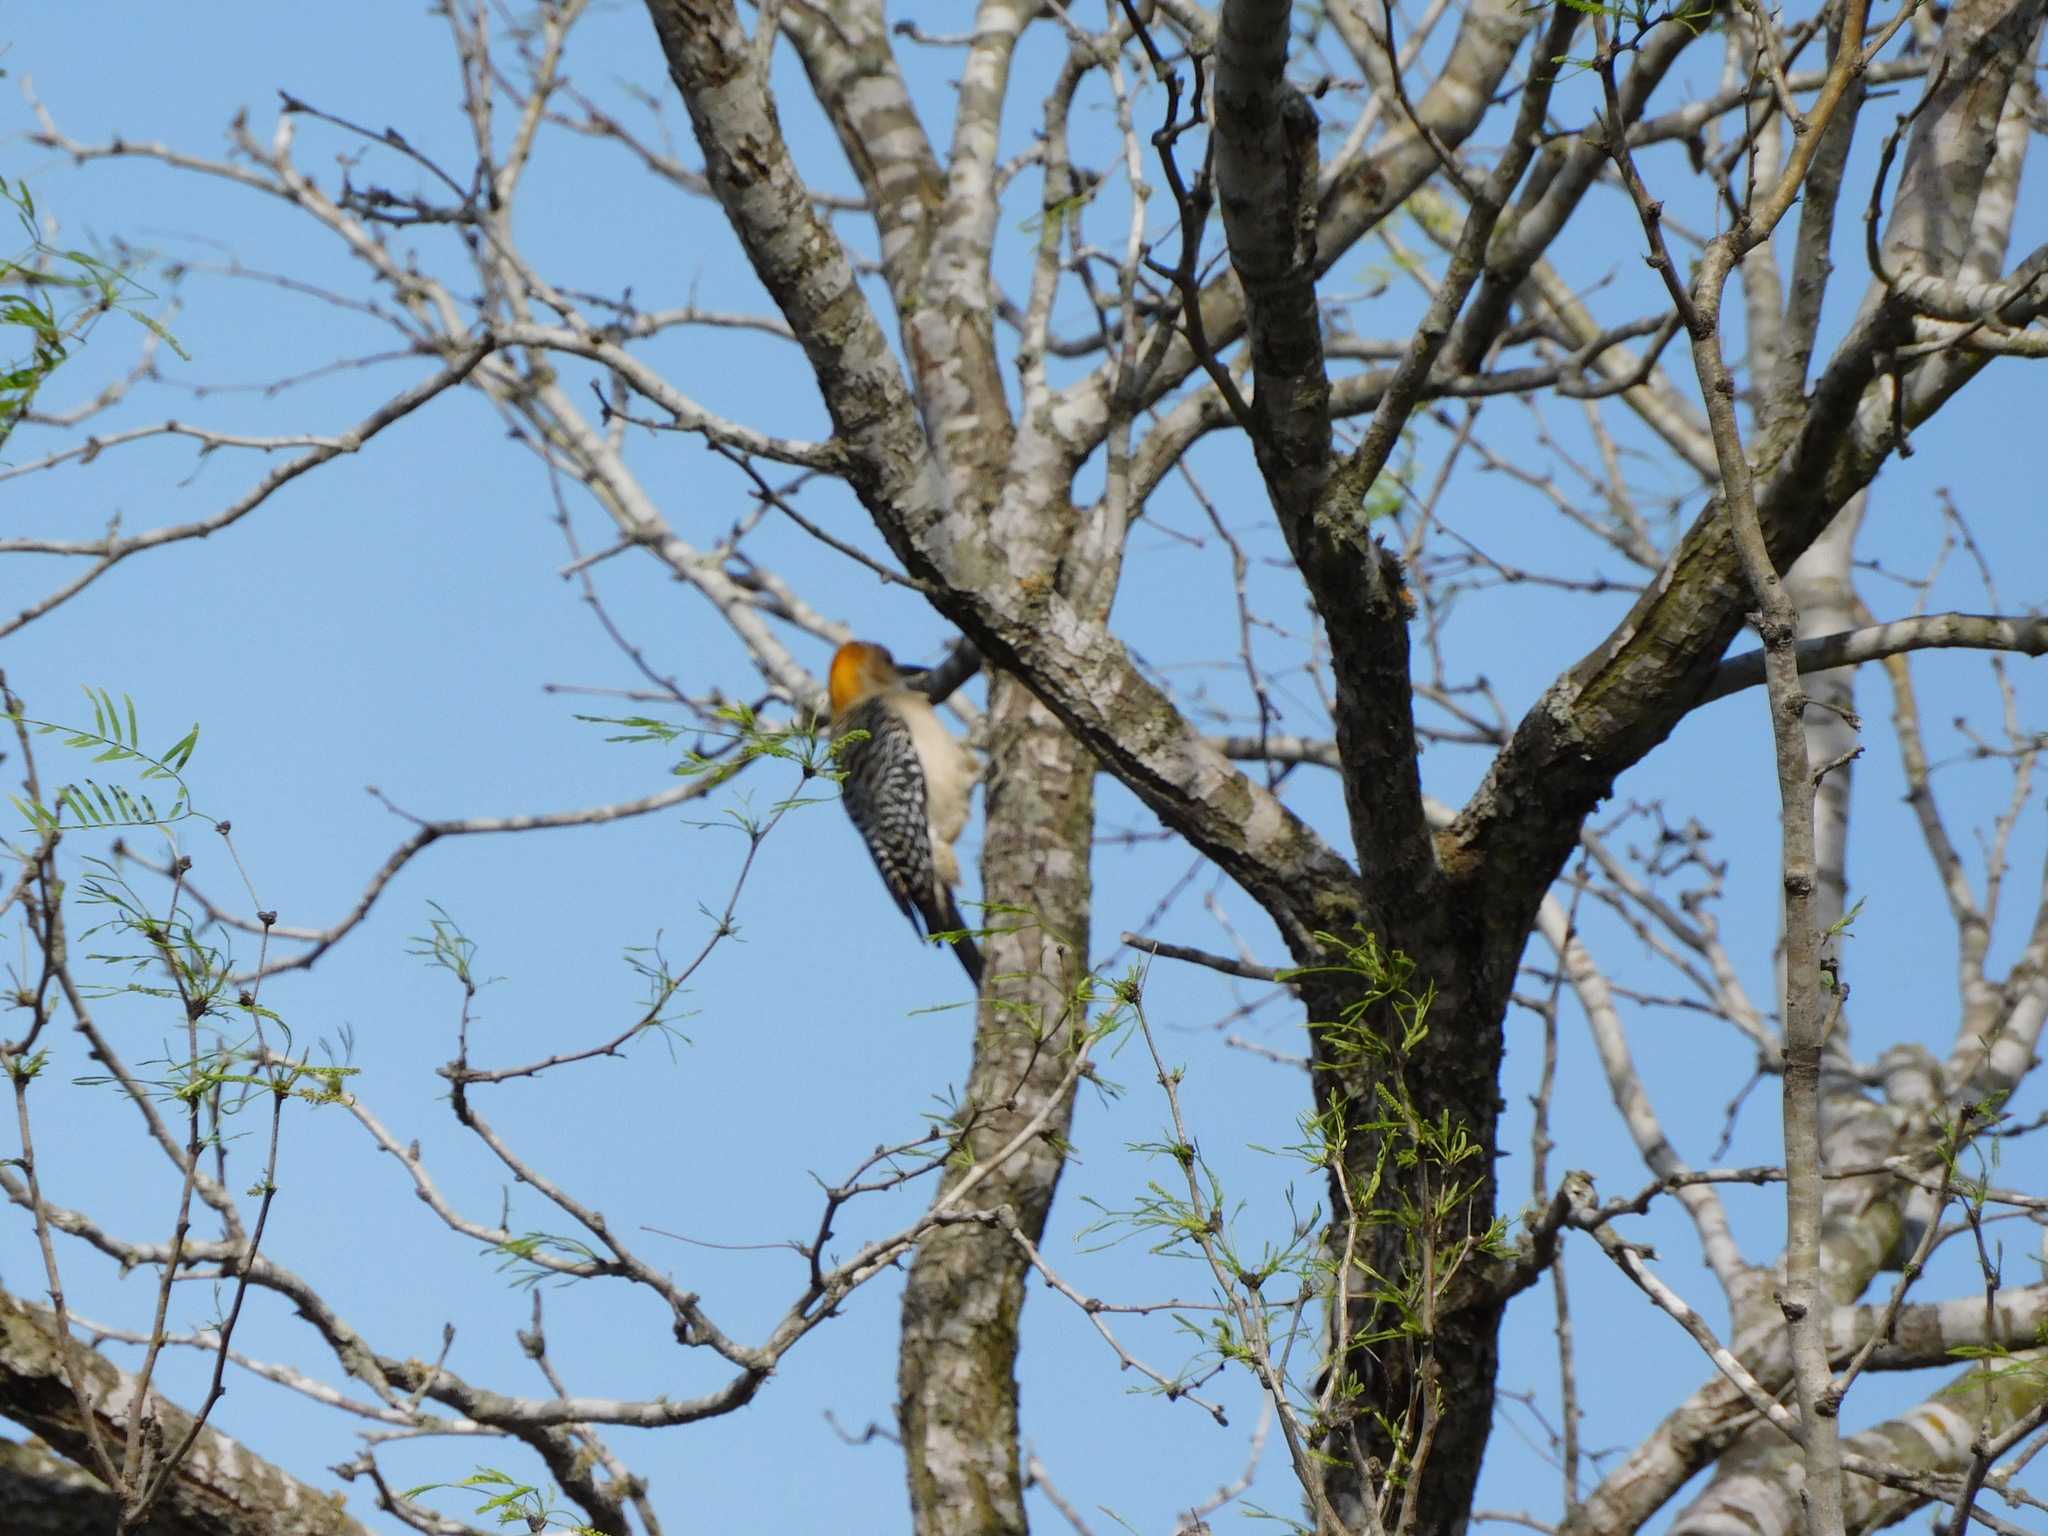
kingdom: Animalia
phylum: Chordata
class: Aves
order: Piciformes
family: Picidae
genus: Melanerpes
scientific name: Melanerpes aurifrons
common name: Golden-fronted woodpecker
